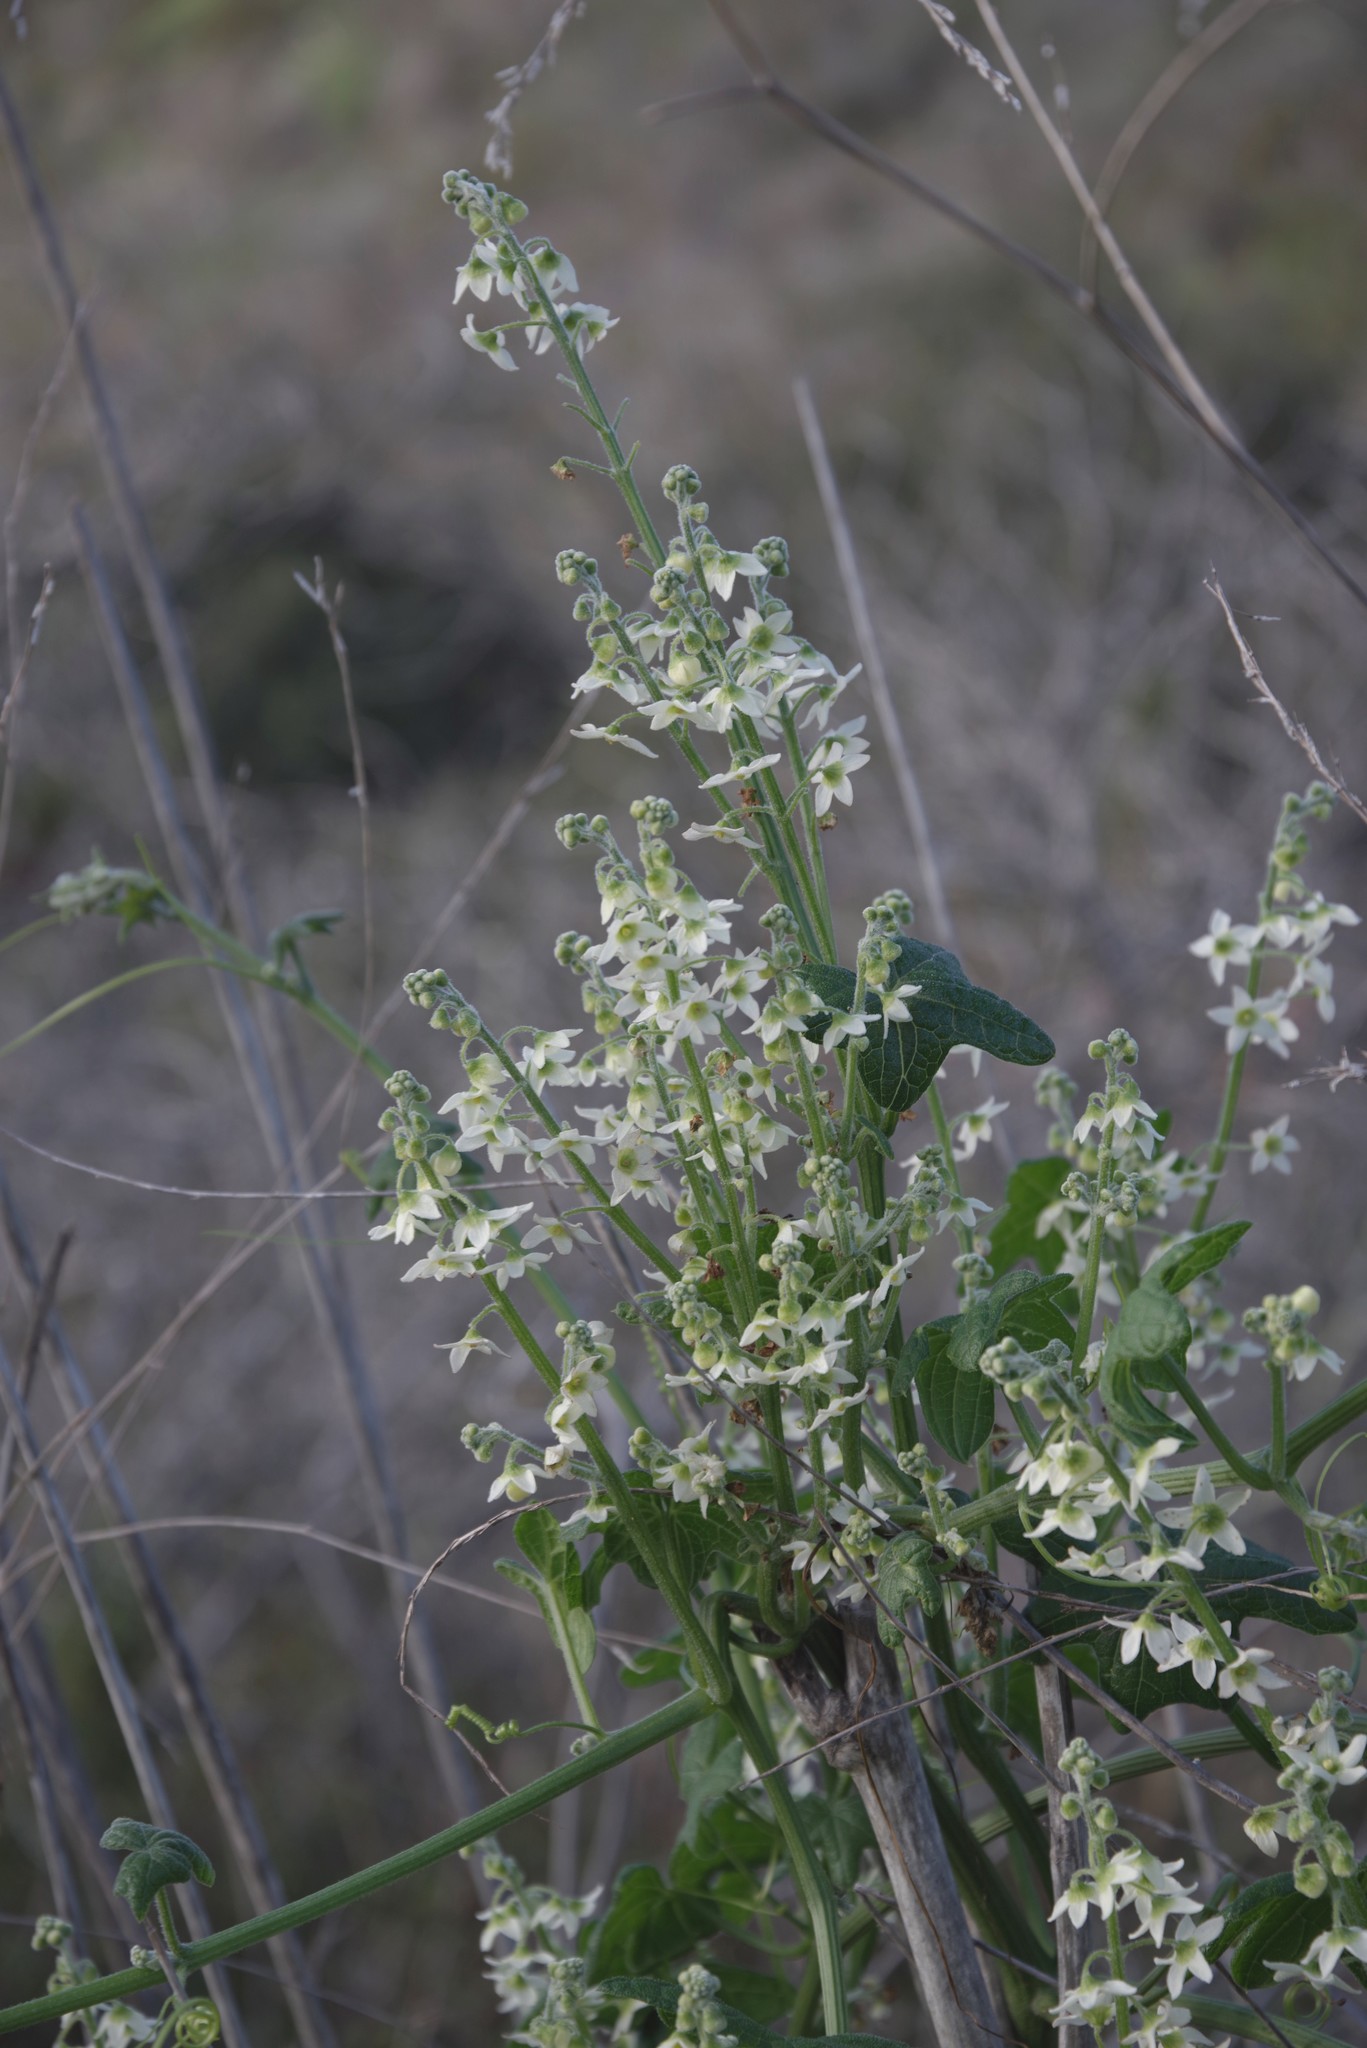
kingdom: Plantae
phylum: Tracheophyta
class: Magnoliopsida
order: Cucurbitales
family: Cucurbitaceae
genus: Marah
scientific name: Marah macrocarpa
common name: Cucamonga manroot
